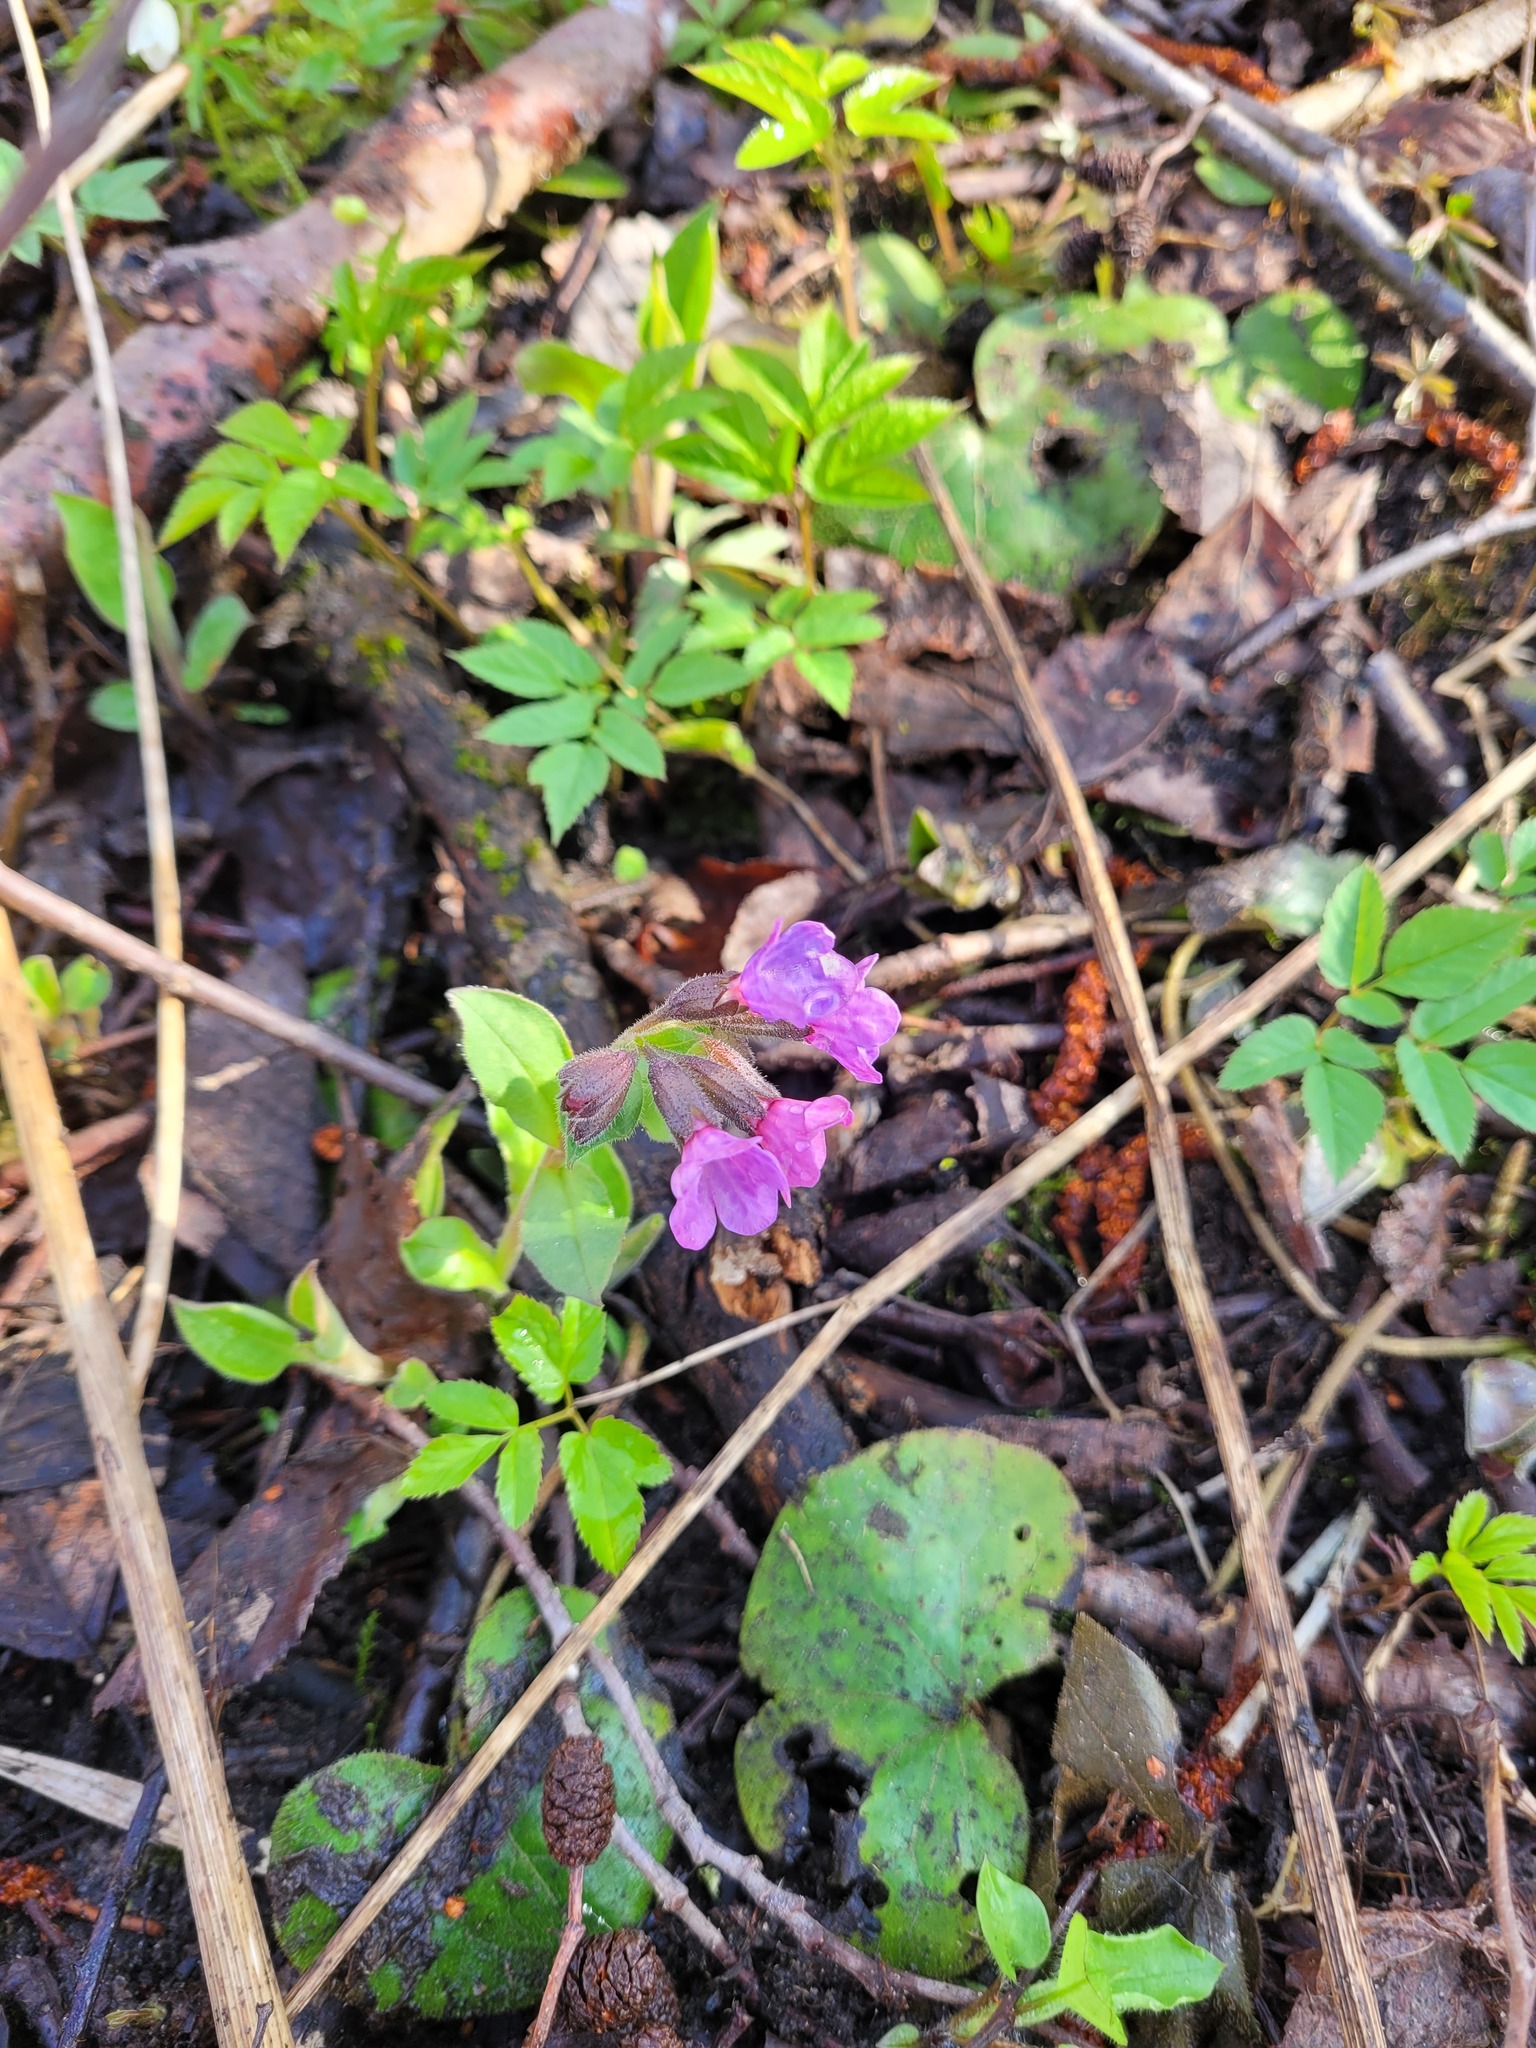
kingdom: Plantae
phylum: Tracheophyta
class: Magnoliopsida
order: Boraginales
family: Boraginaceae
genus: Pulmonaria
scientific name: Pulmonaria obscura
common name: Suffolk lungwort
